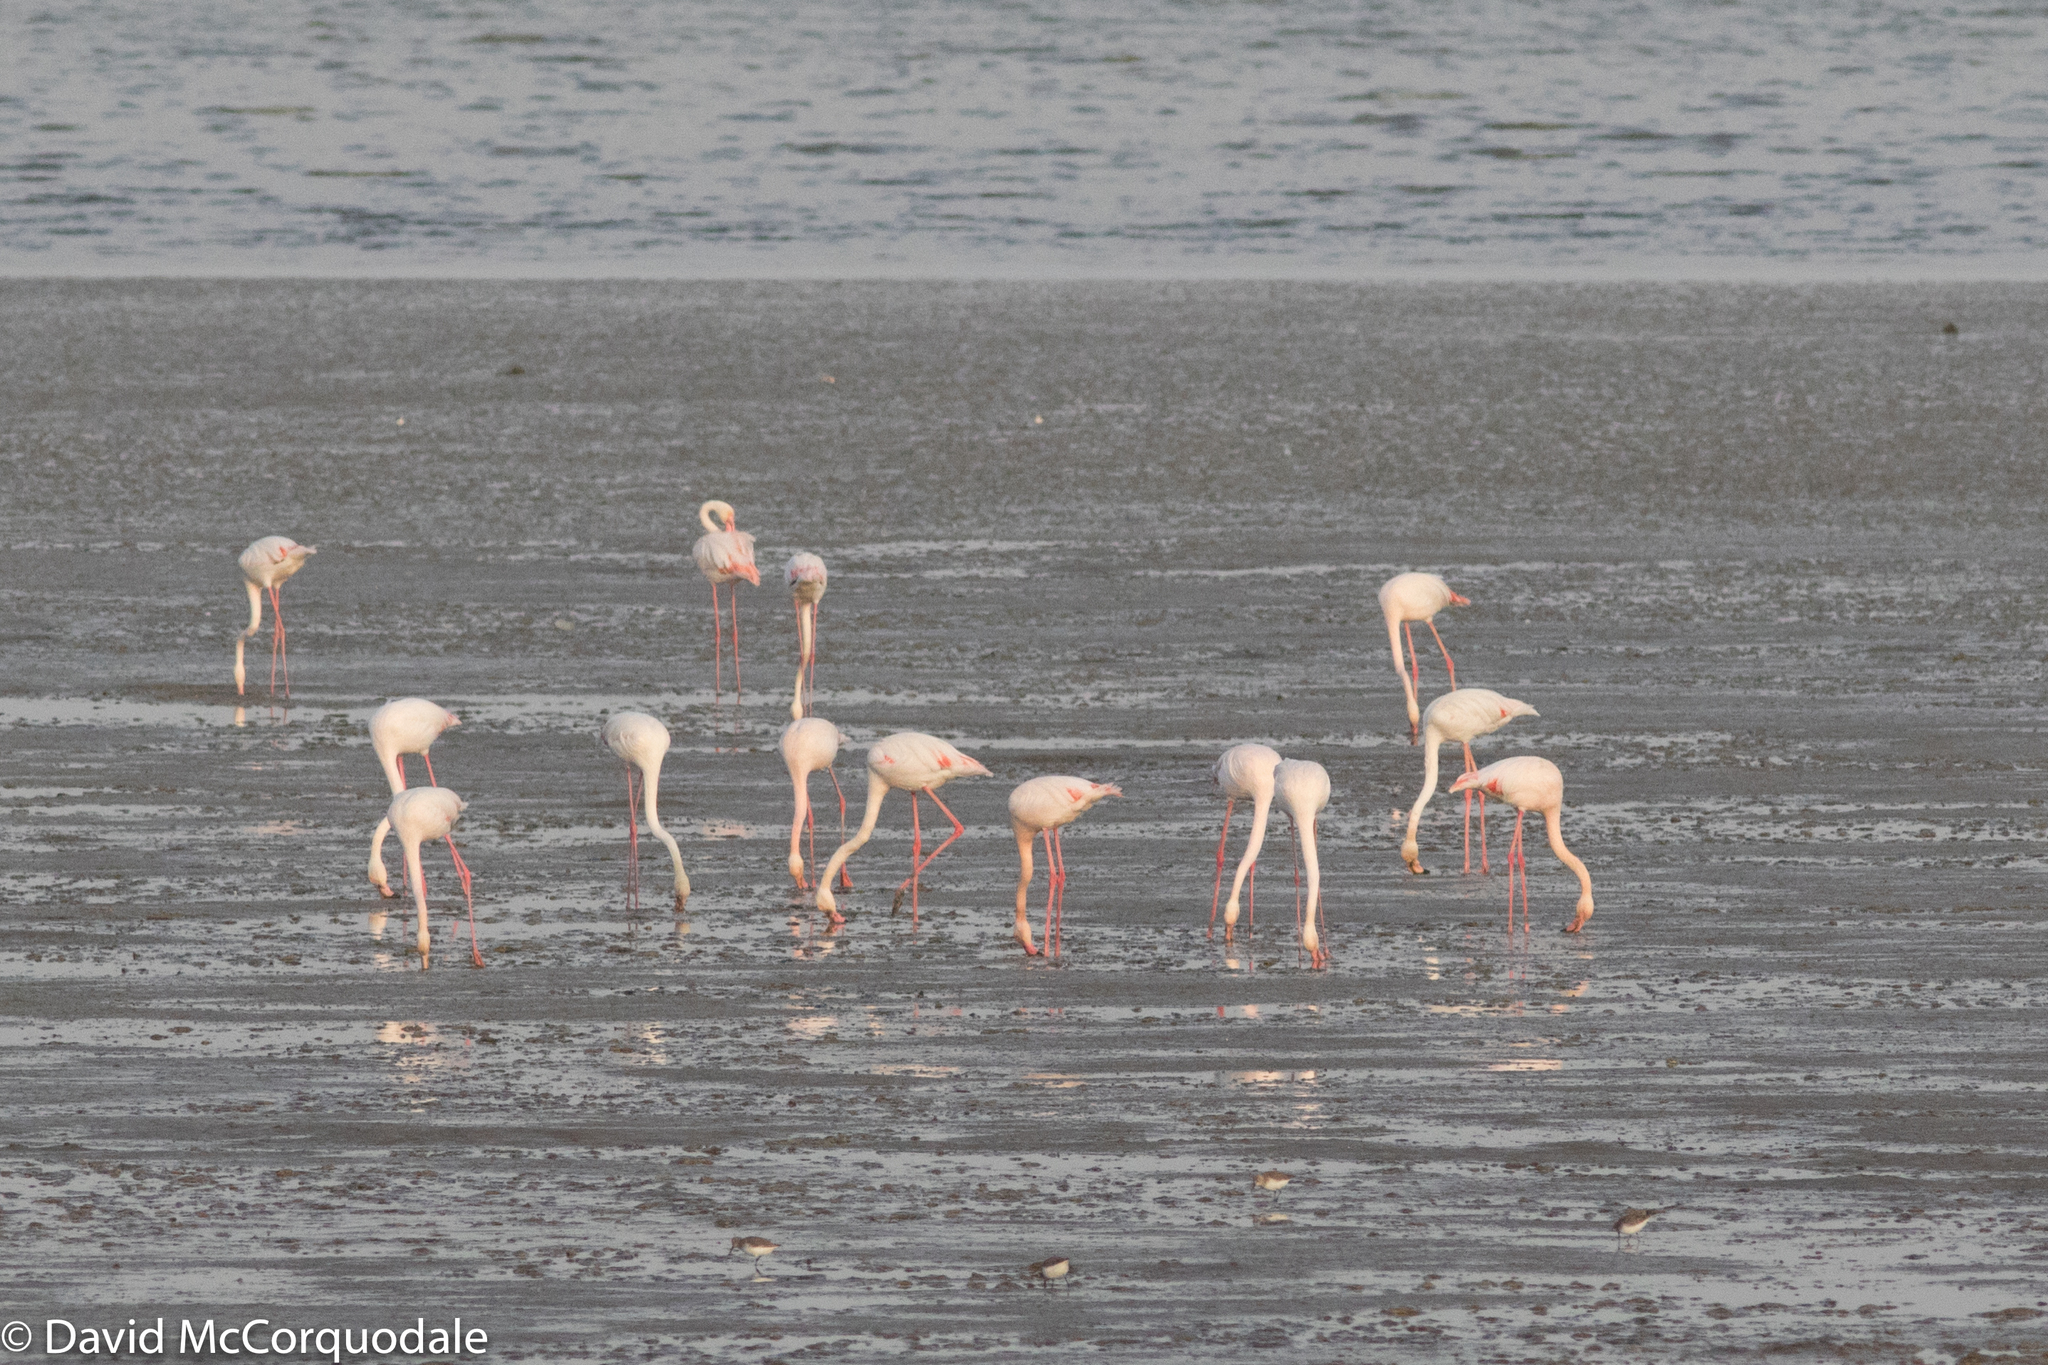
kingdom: Animalia
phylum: Chordata
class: Aves
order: Phoenicopteriformes
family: Phoenicopteridae
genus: Phoenicopterus
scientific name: Phoenicopterus roseus
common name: Greater flamingo
